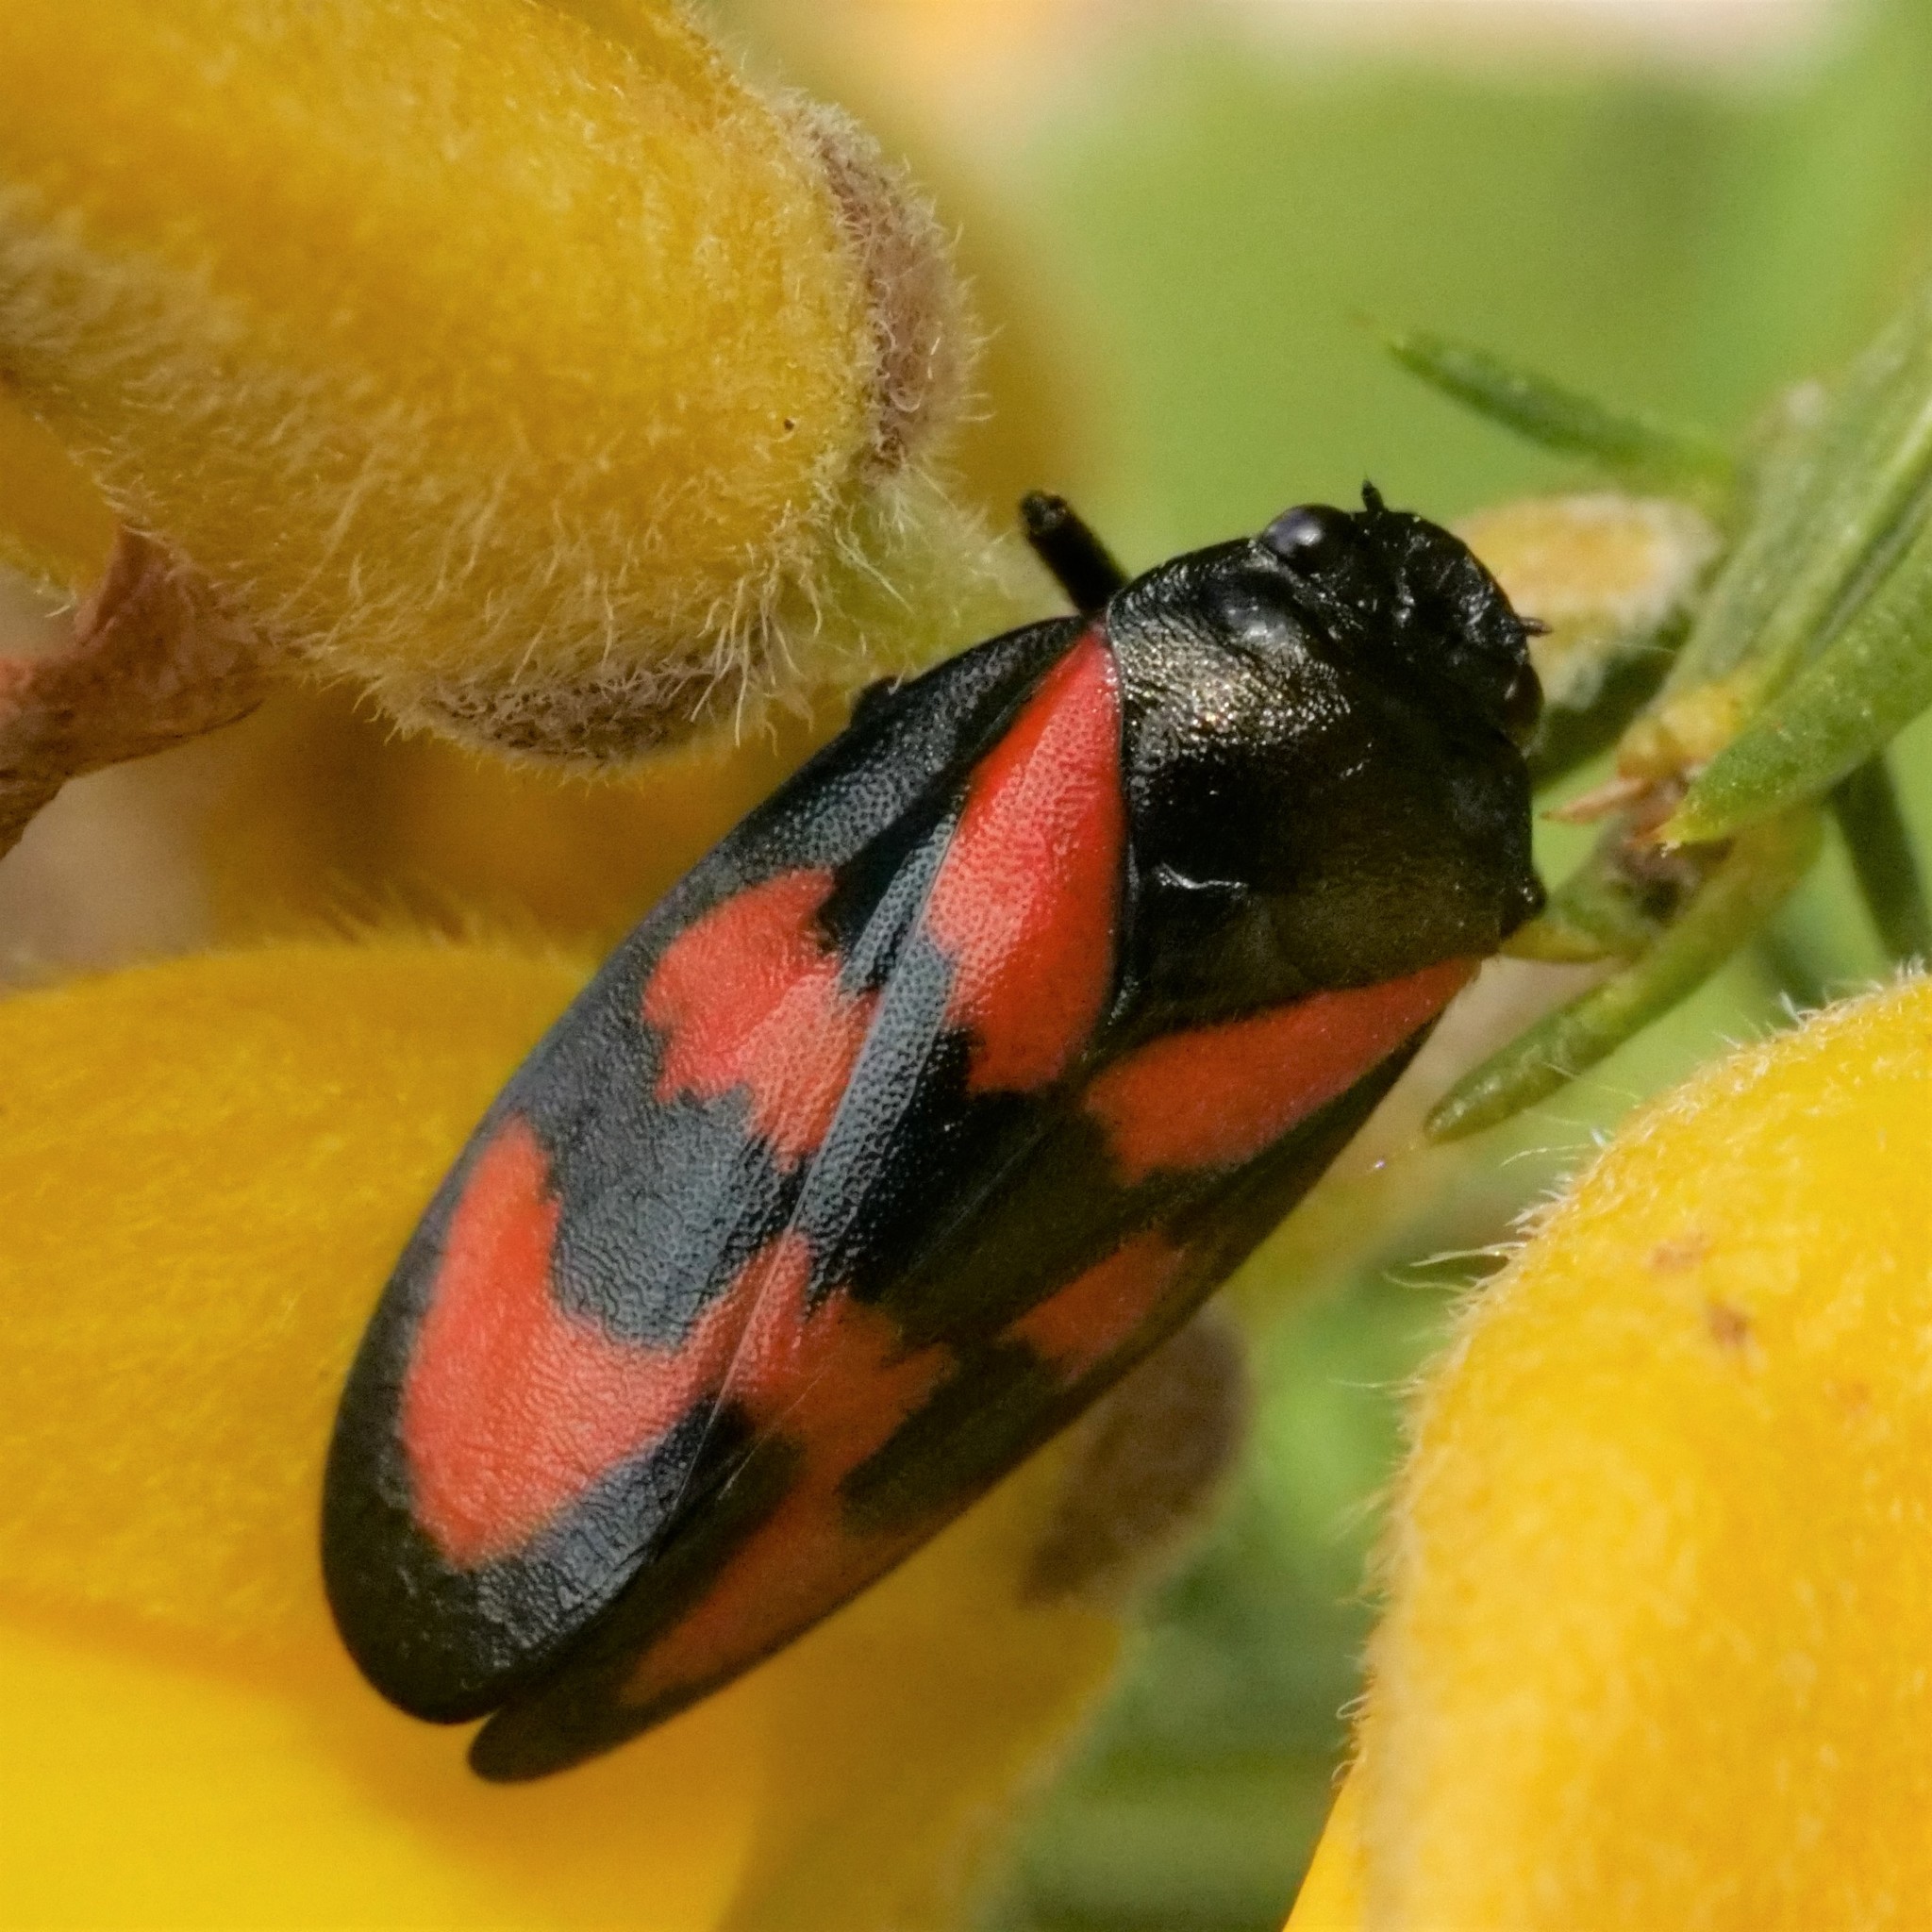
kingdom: Animalia
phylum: Arthropoda
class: Insecta
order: Hemiptera
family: Cercopidae
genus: Cercopis
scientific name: Cercopis vulnerata
